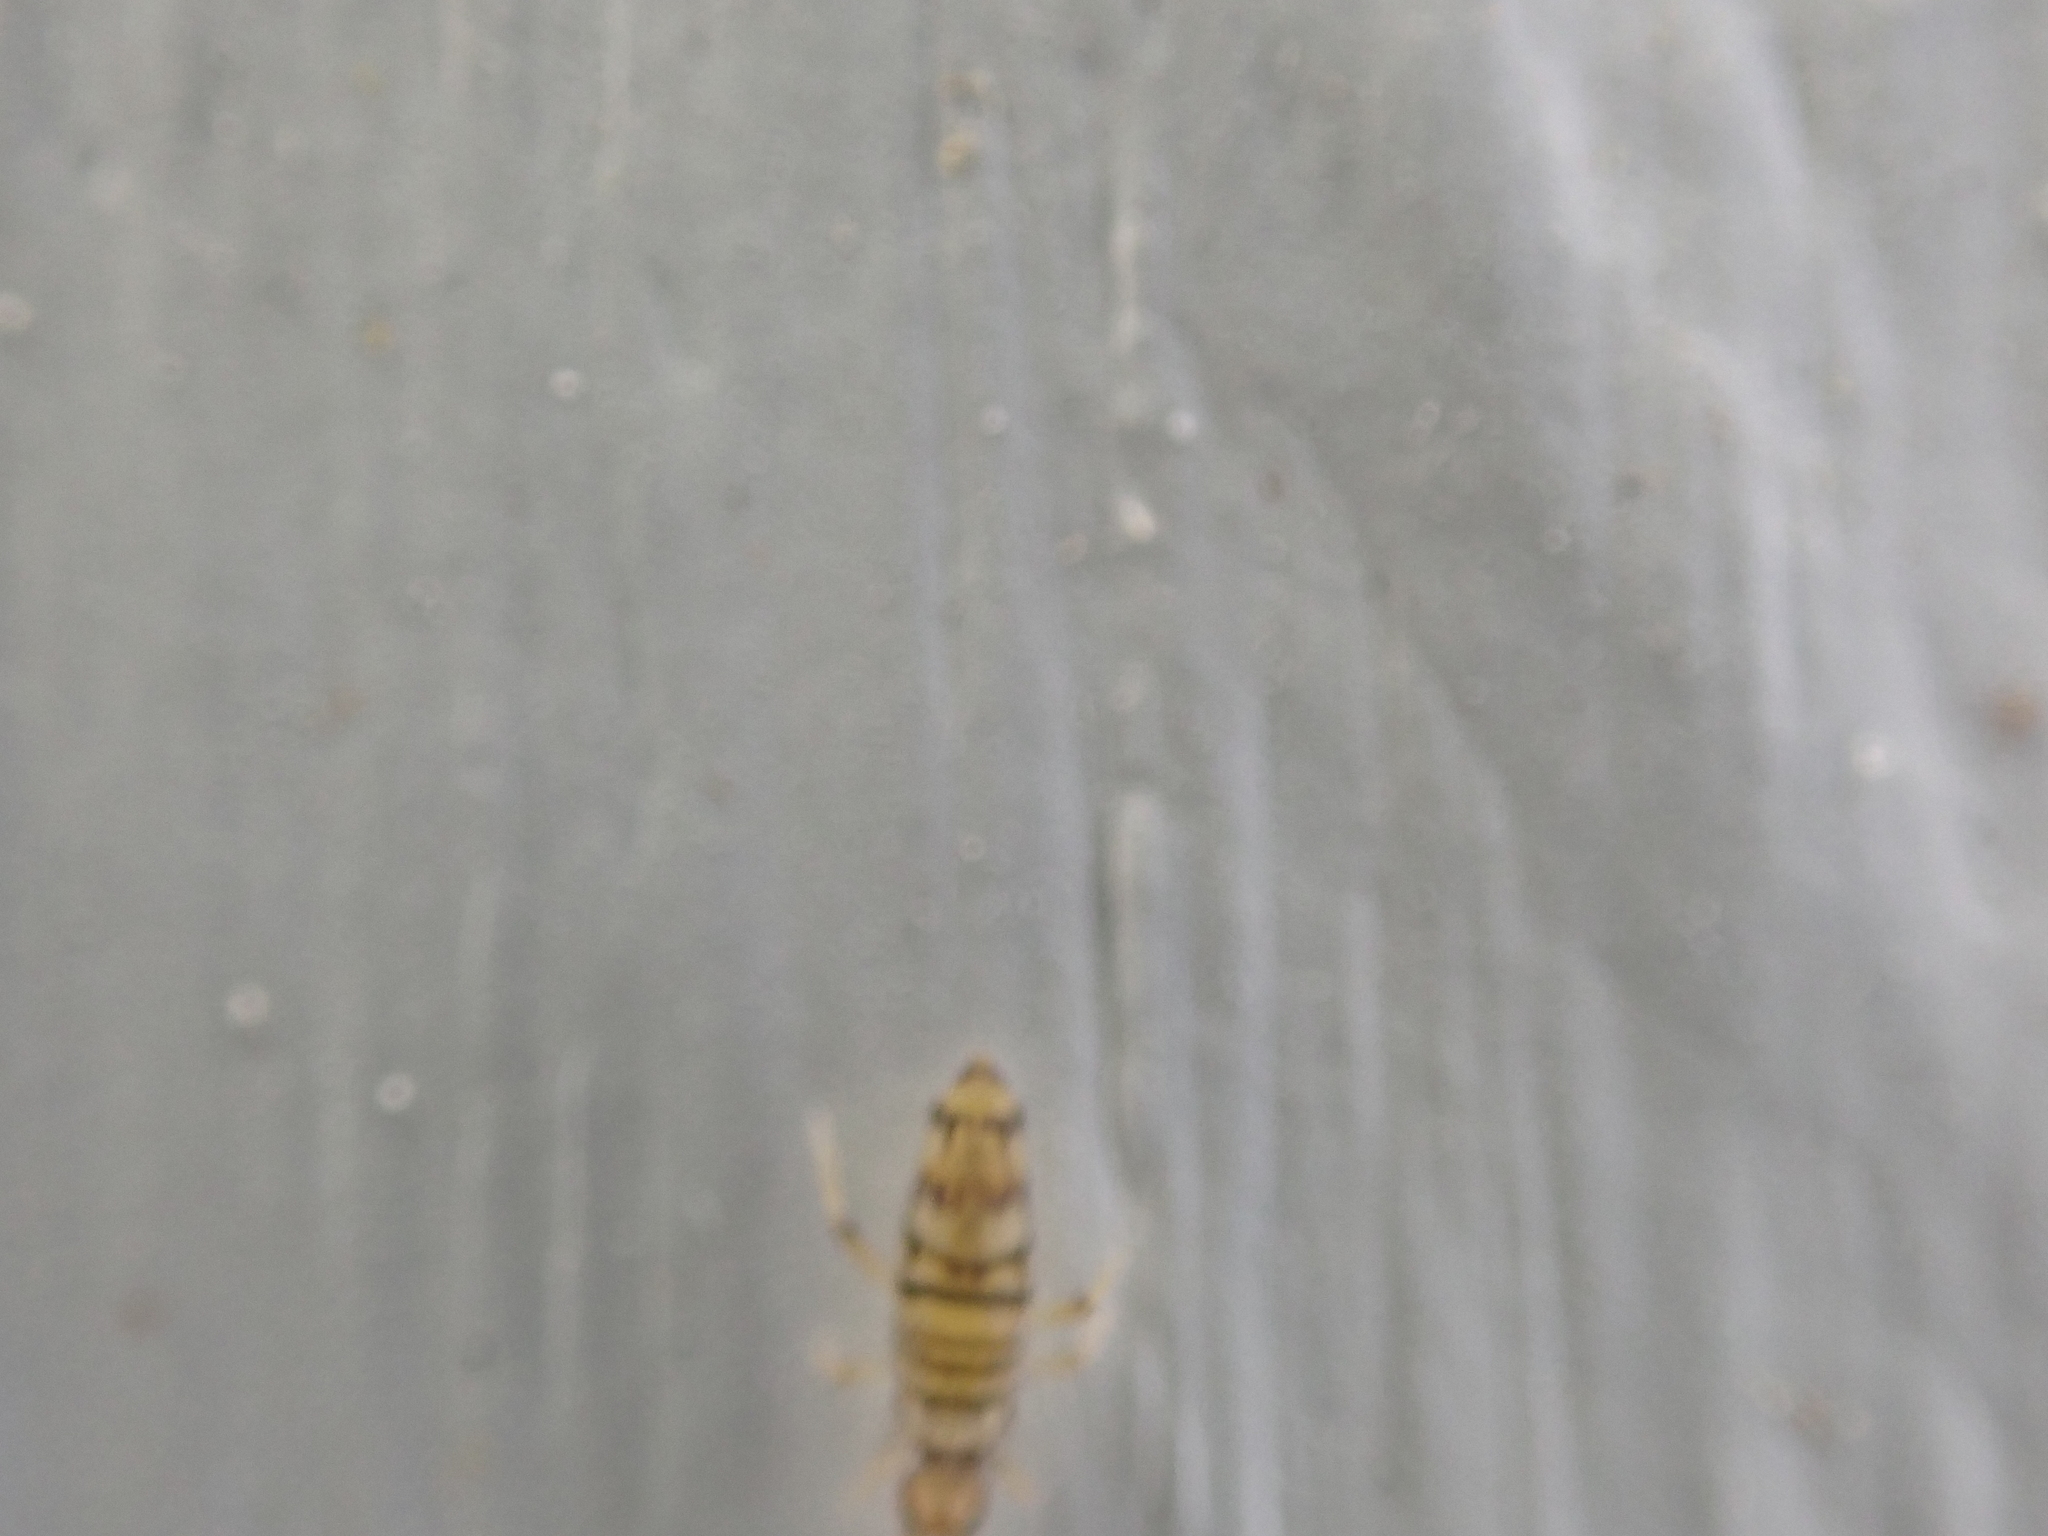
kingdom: Animalia
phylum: Arthropoda
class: Collembola
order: Entomobryomorpha
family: Entomobryidae
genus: Entomobrya
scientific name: Entomobrya atrocincta
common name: Springtail
